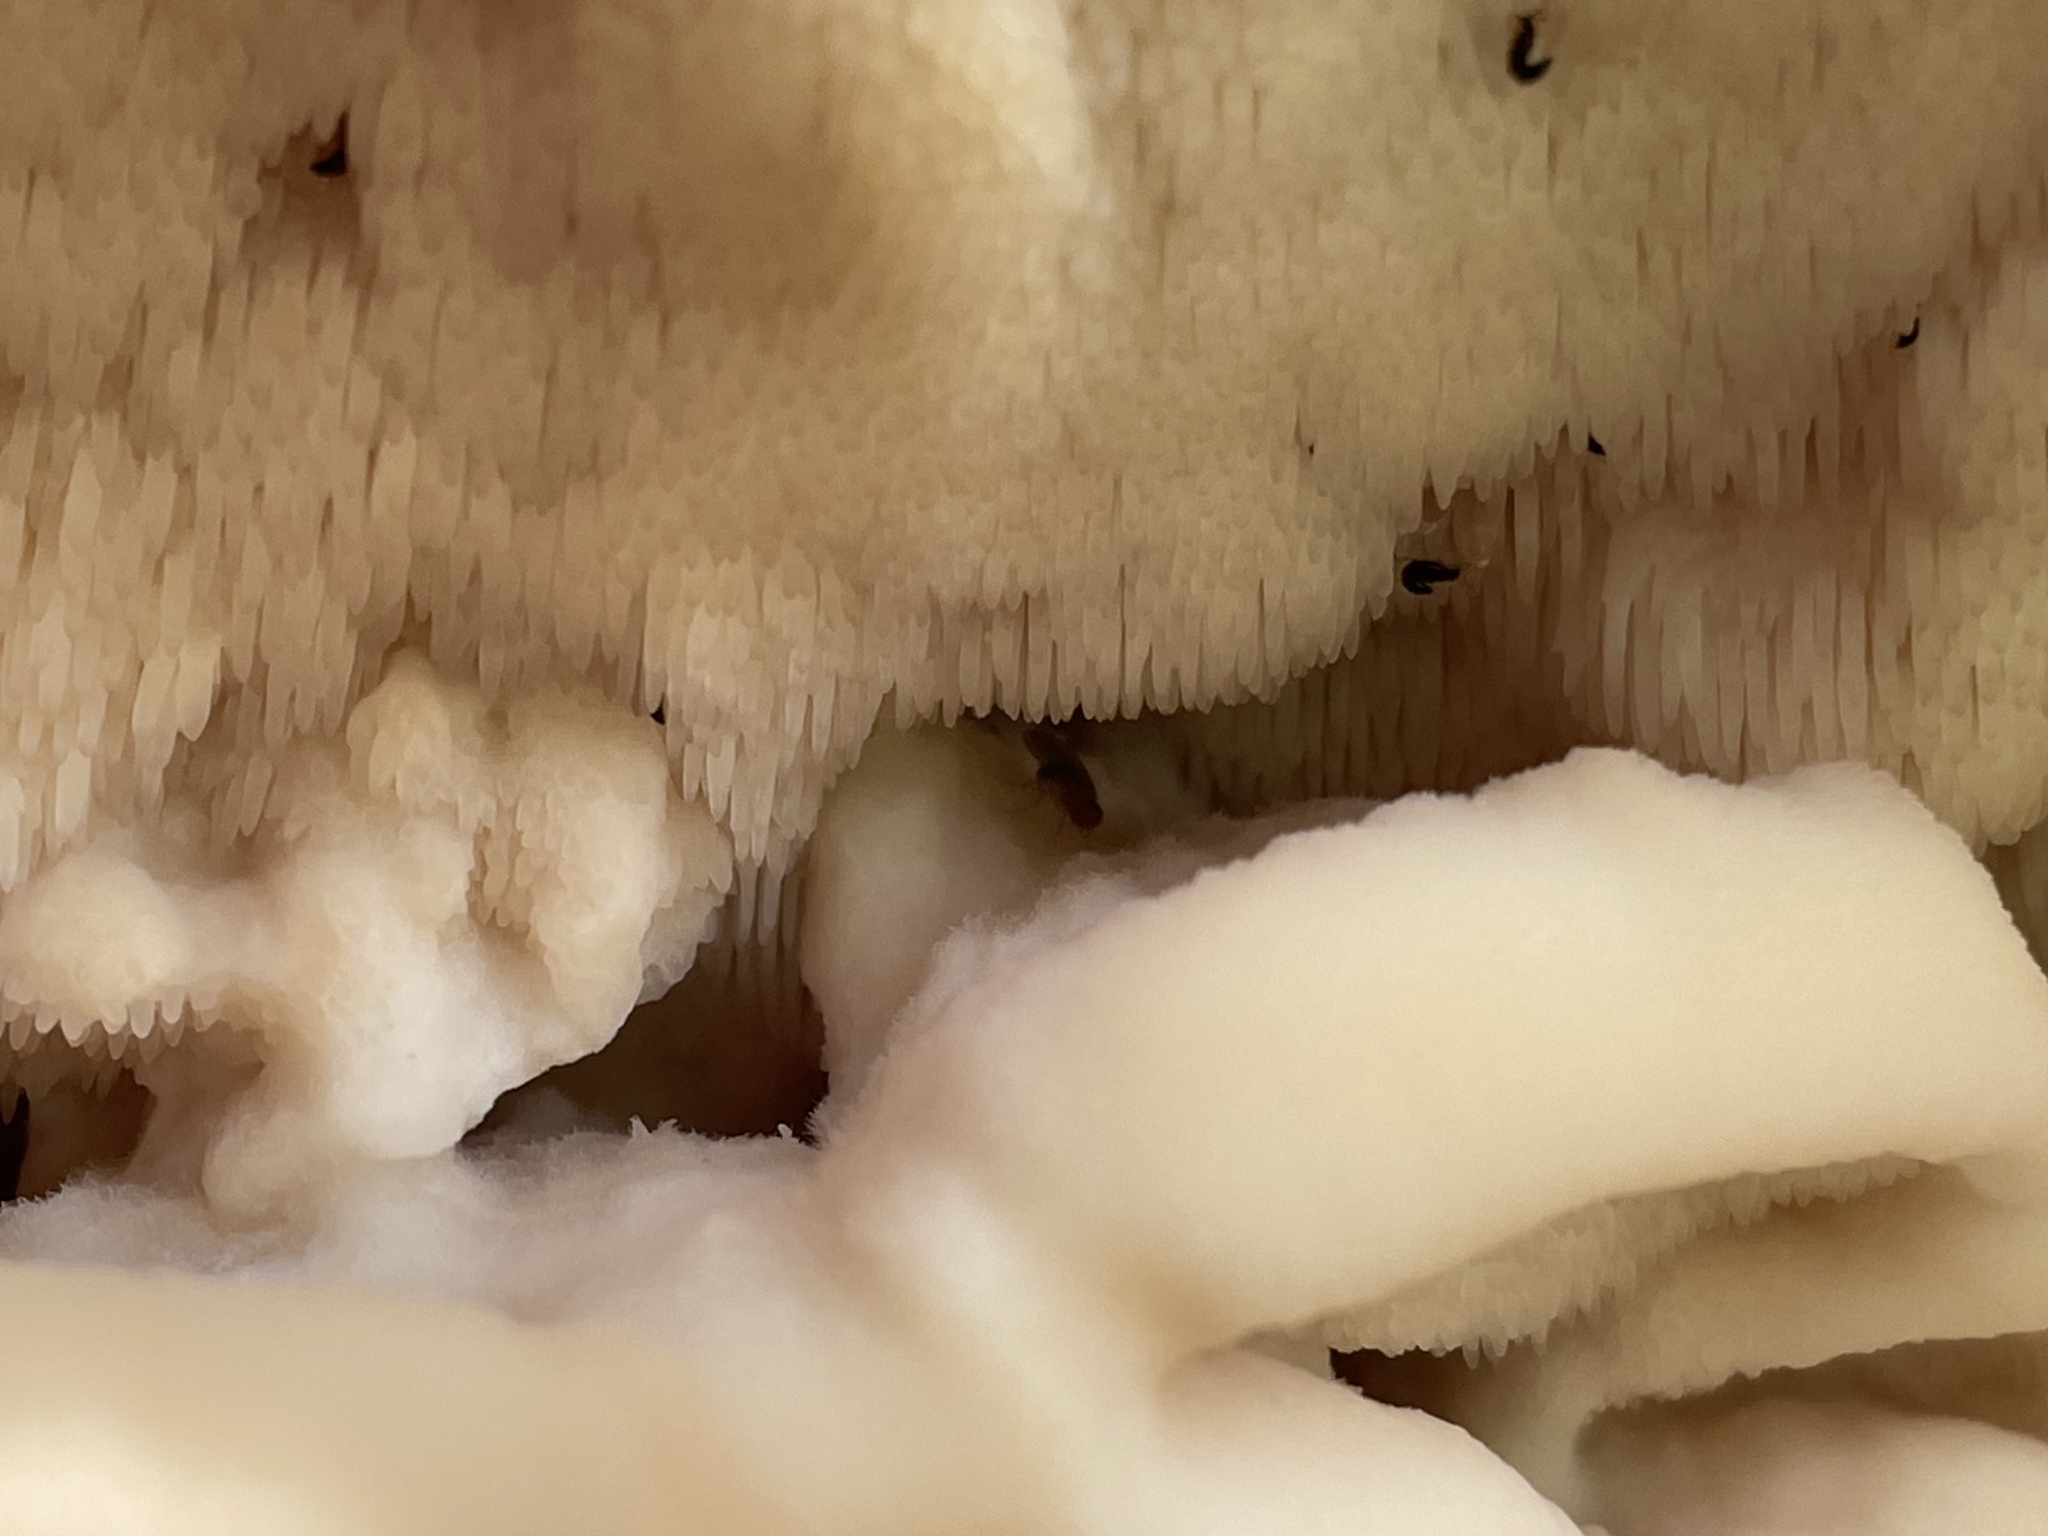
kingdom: Fungi
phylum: Basidiomycota
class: Agaricomycetes
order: Polyporales
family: Meruliaceae
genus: Climacodon
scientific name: Climacodon septentrionalis
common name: Northern tooth
